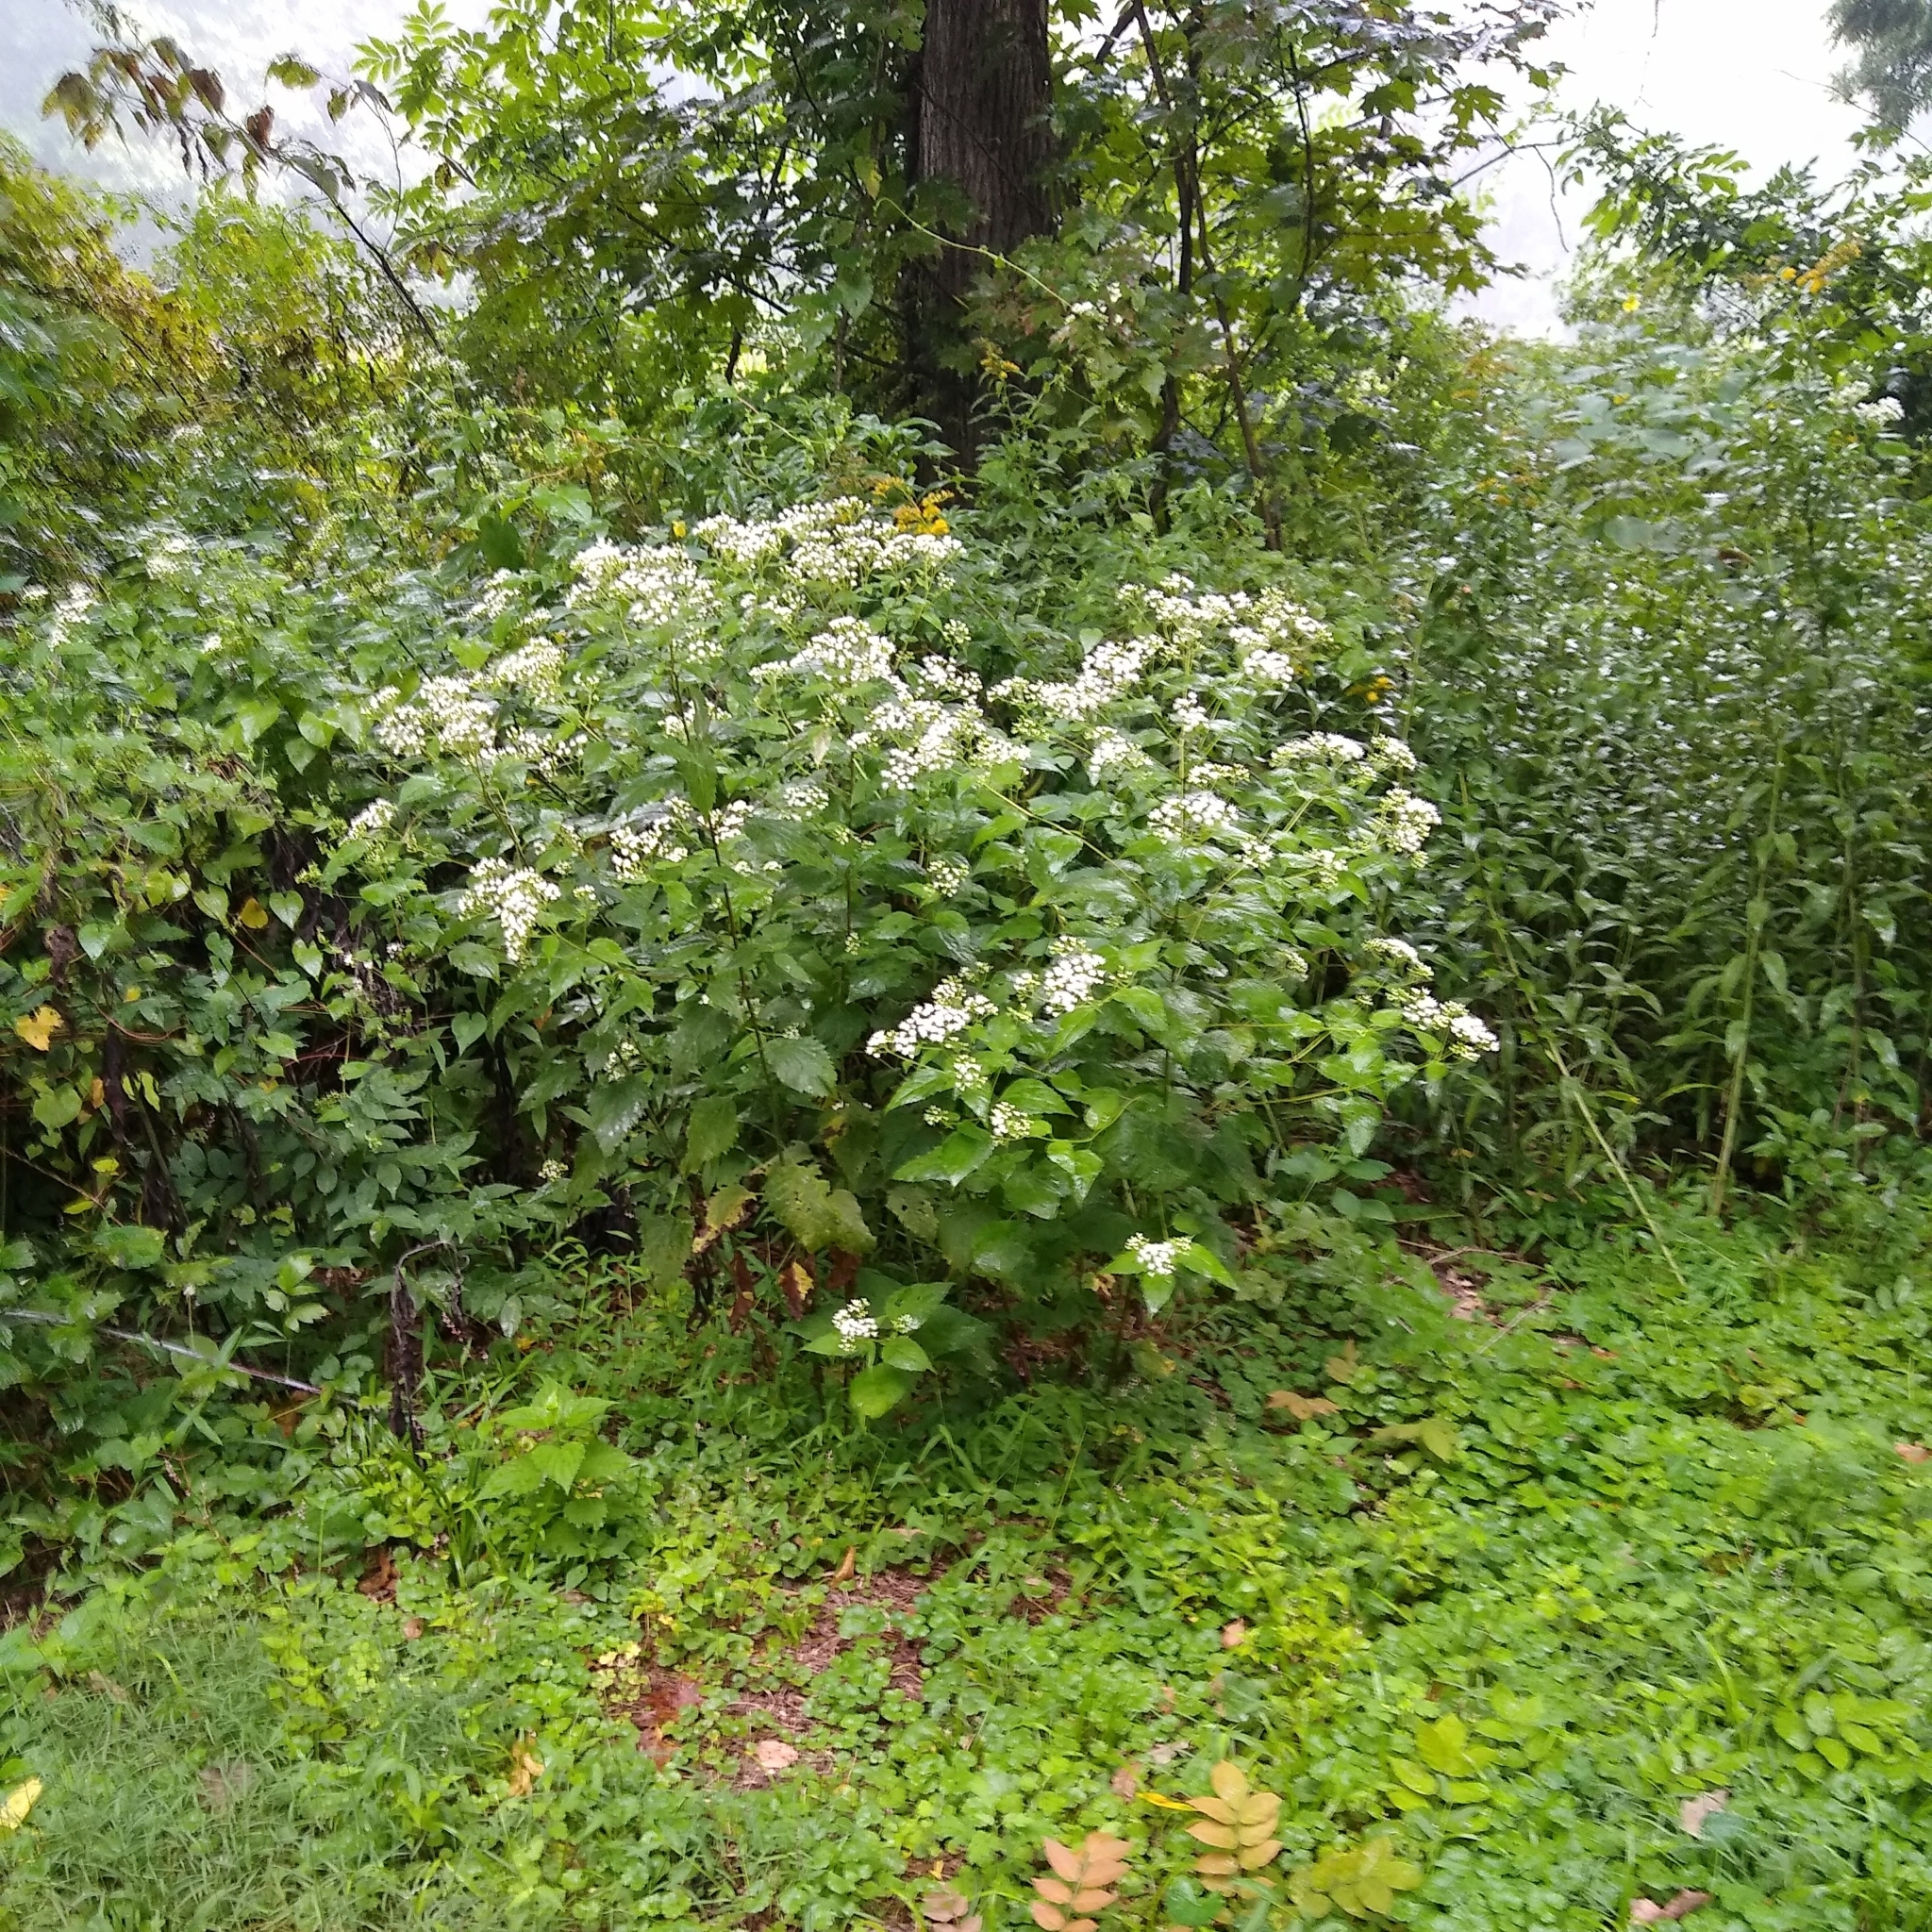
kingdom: Plantae
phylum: Tracheophyta
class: Magnoliopsida
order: Asterales
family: Asteraceae
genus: Ageratina
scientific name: Ageratina altissima
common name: White snakeroot
